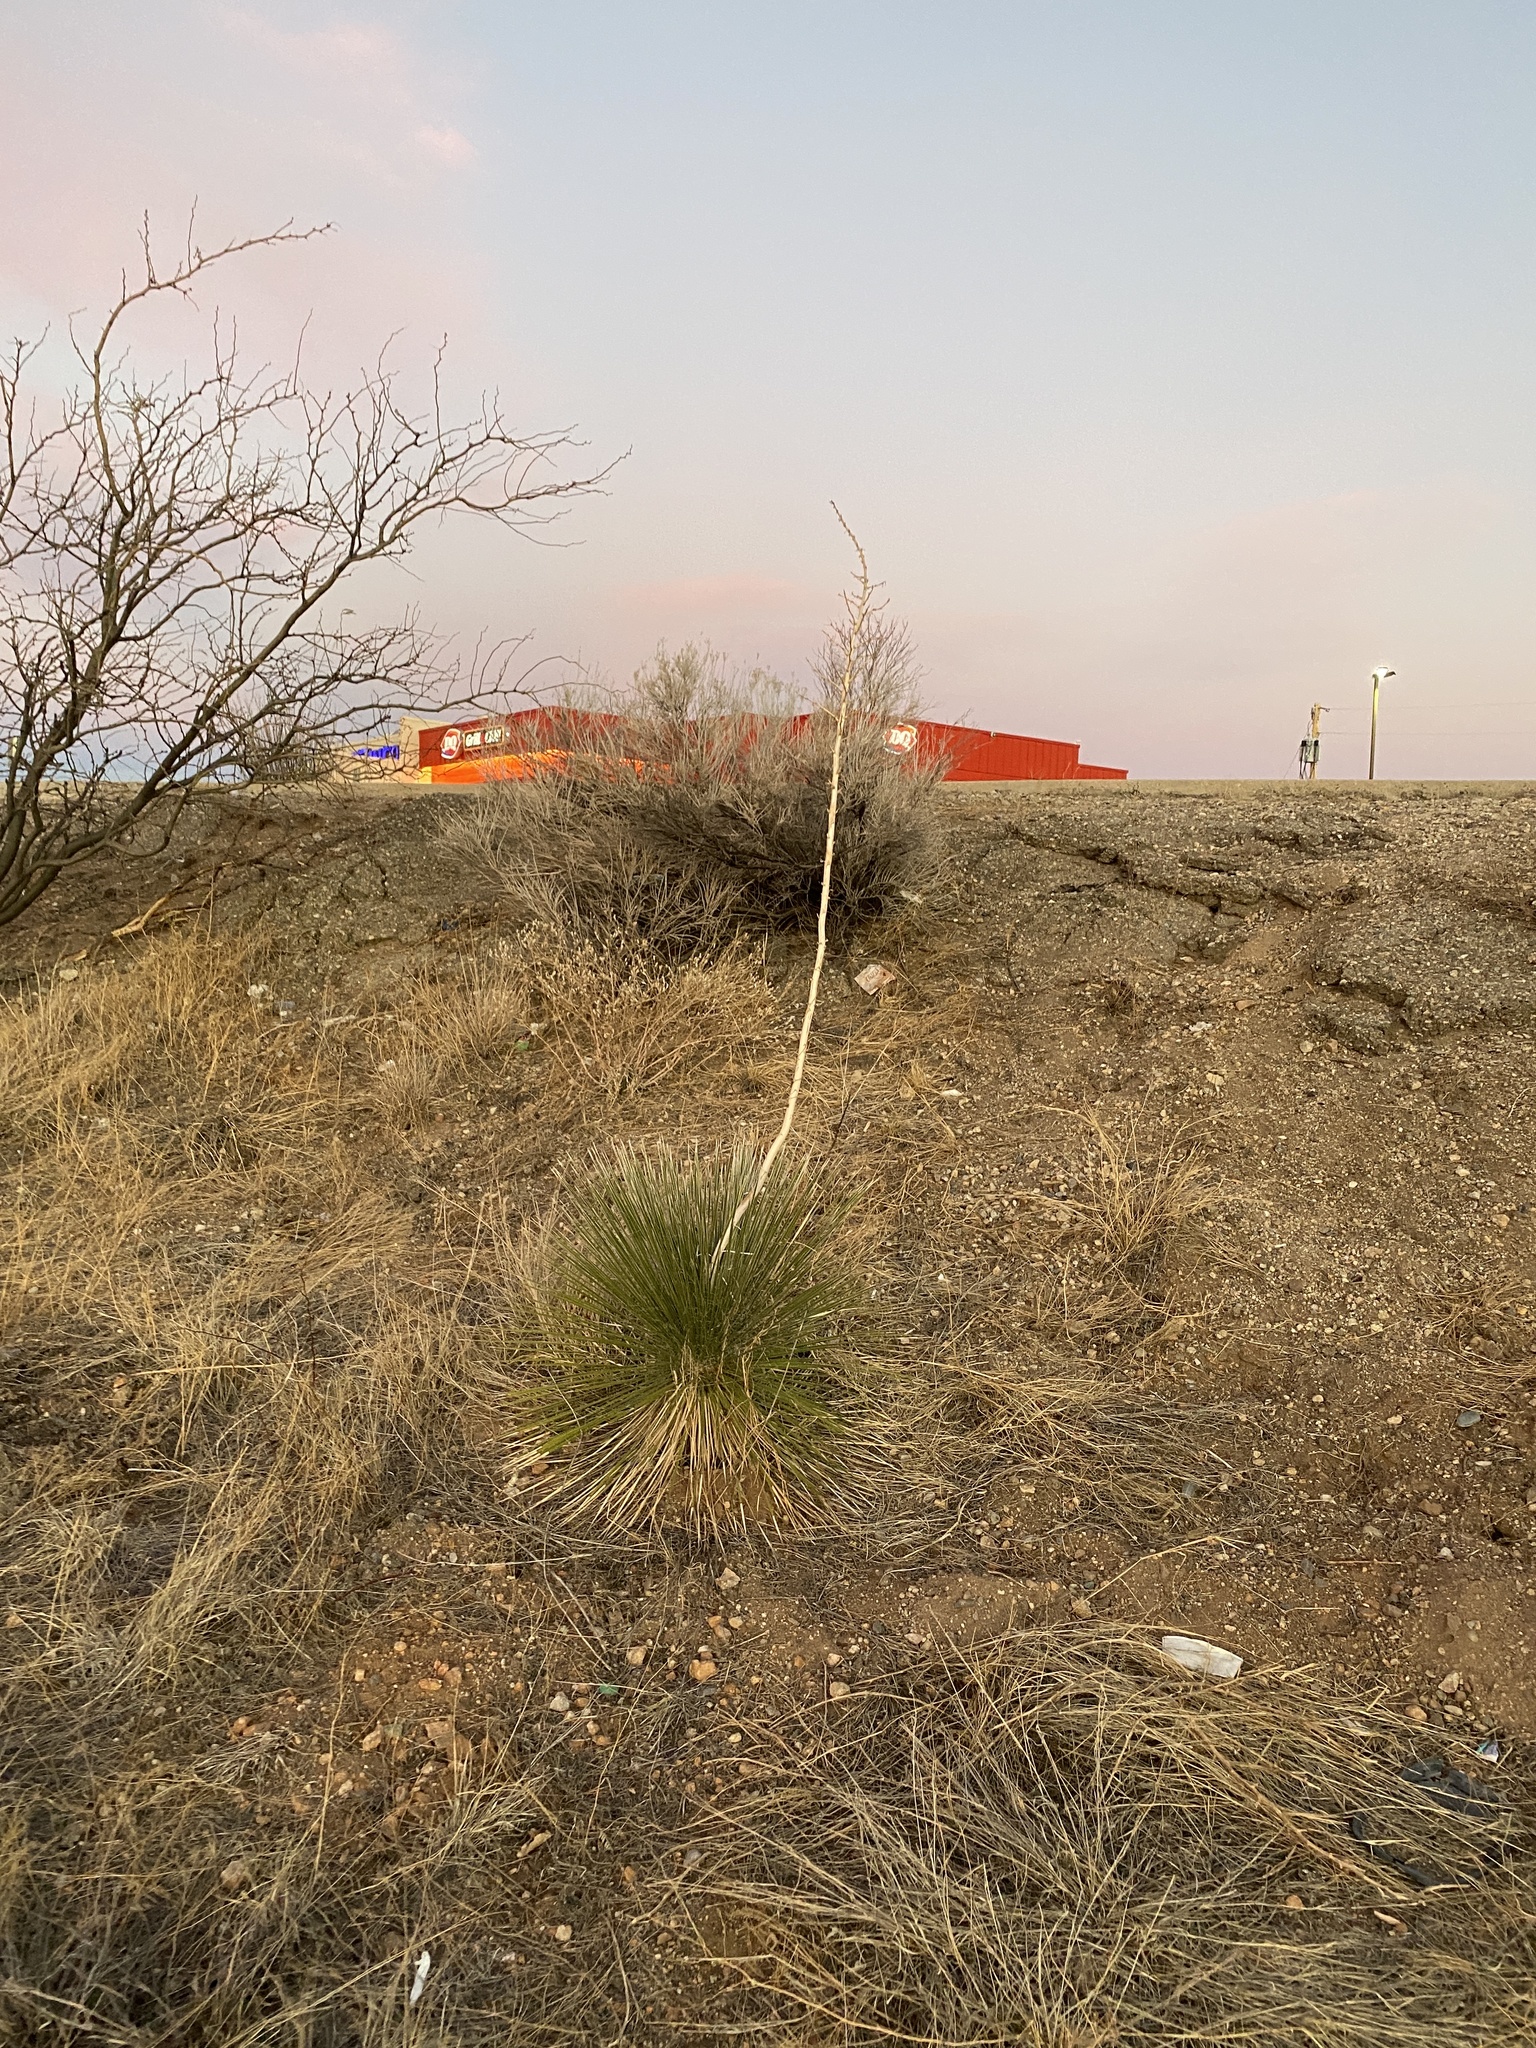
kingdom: Plantae
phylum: Tracheophyta
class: Liliopsida
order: Asparagales
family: Asparagaceae
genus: Yucca
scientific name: Yucca elata
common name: Palmella
